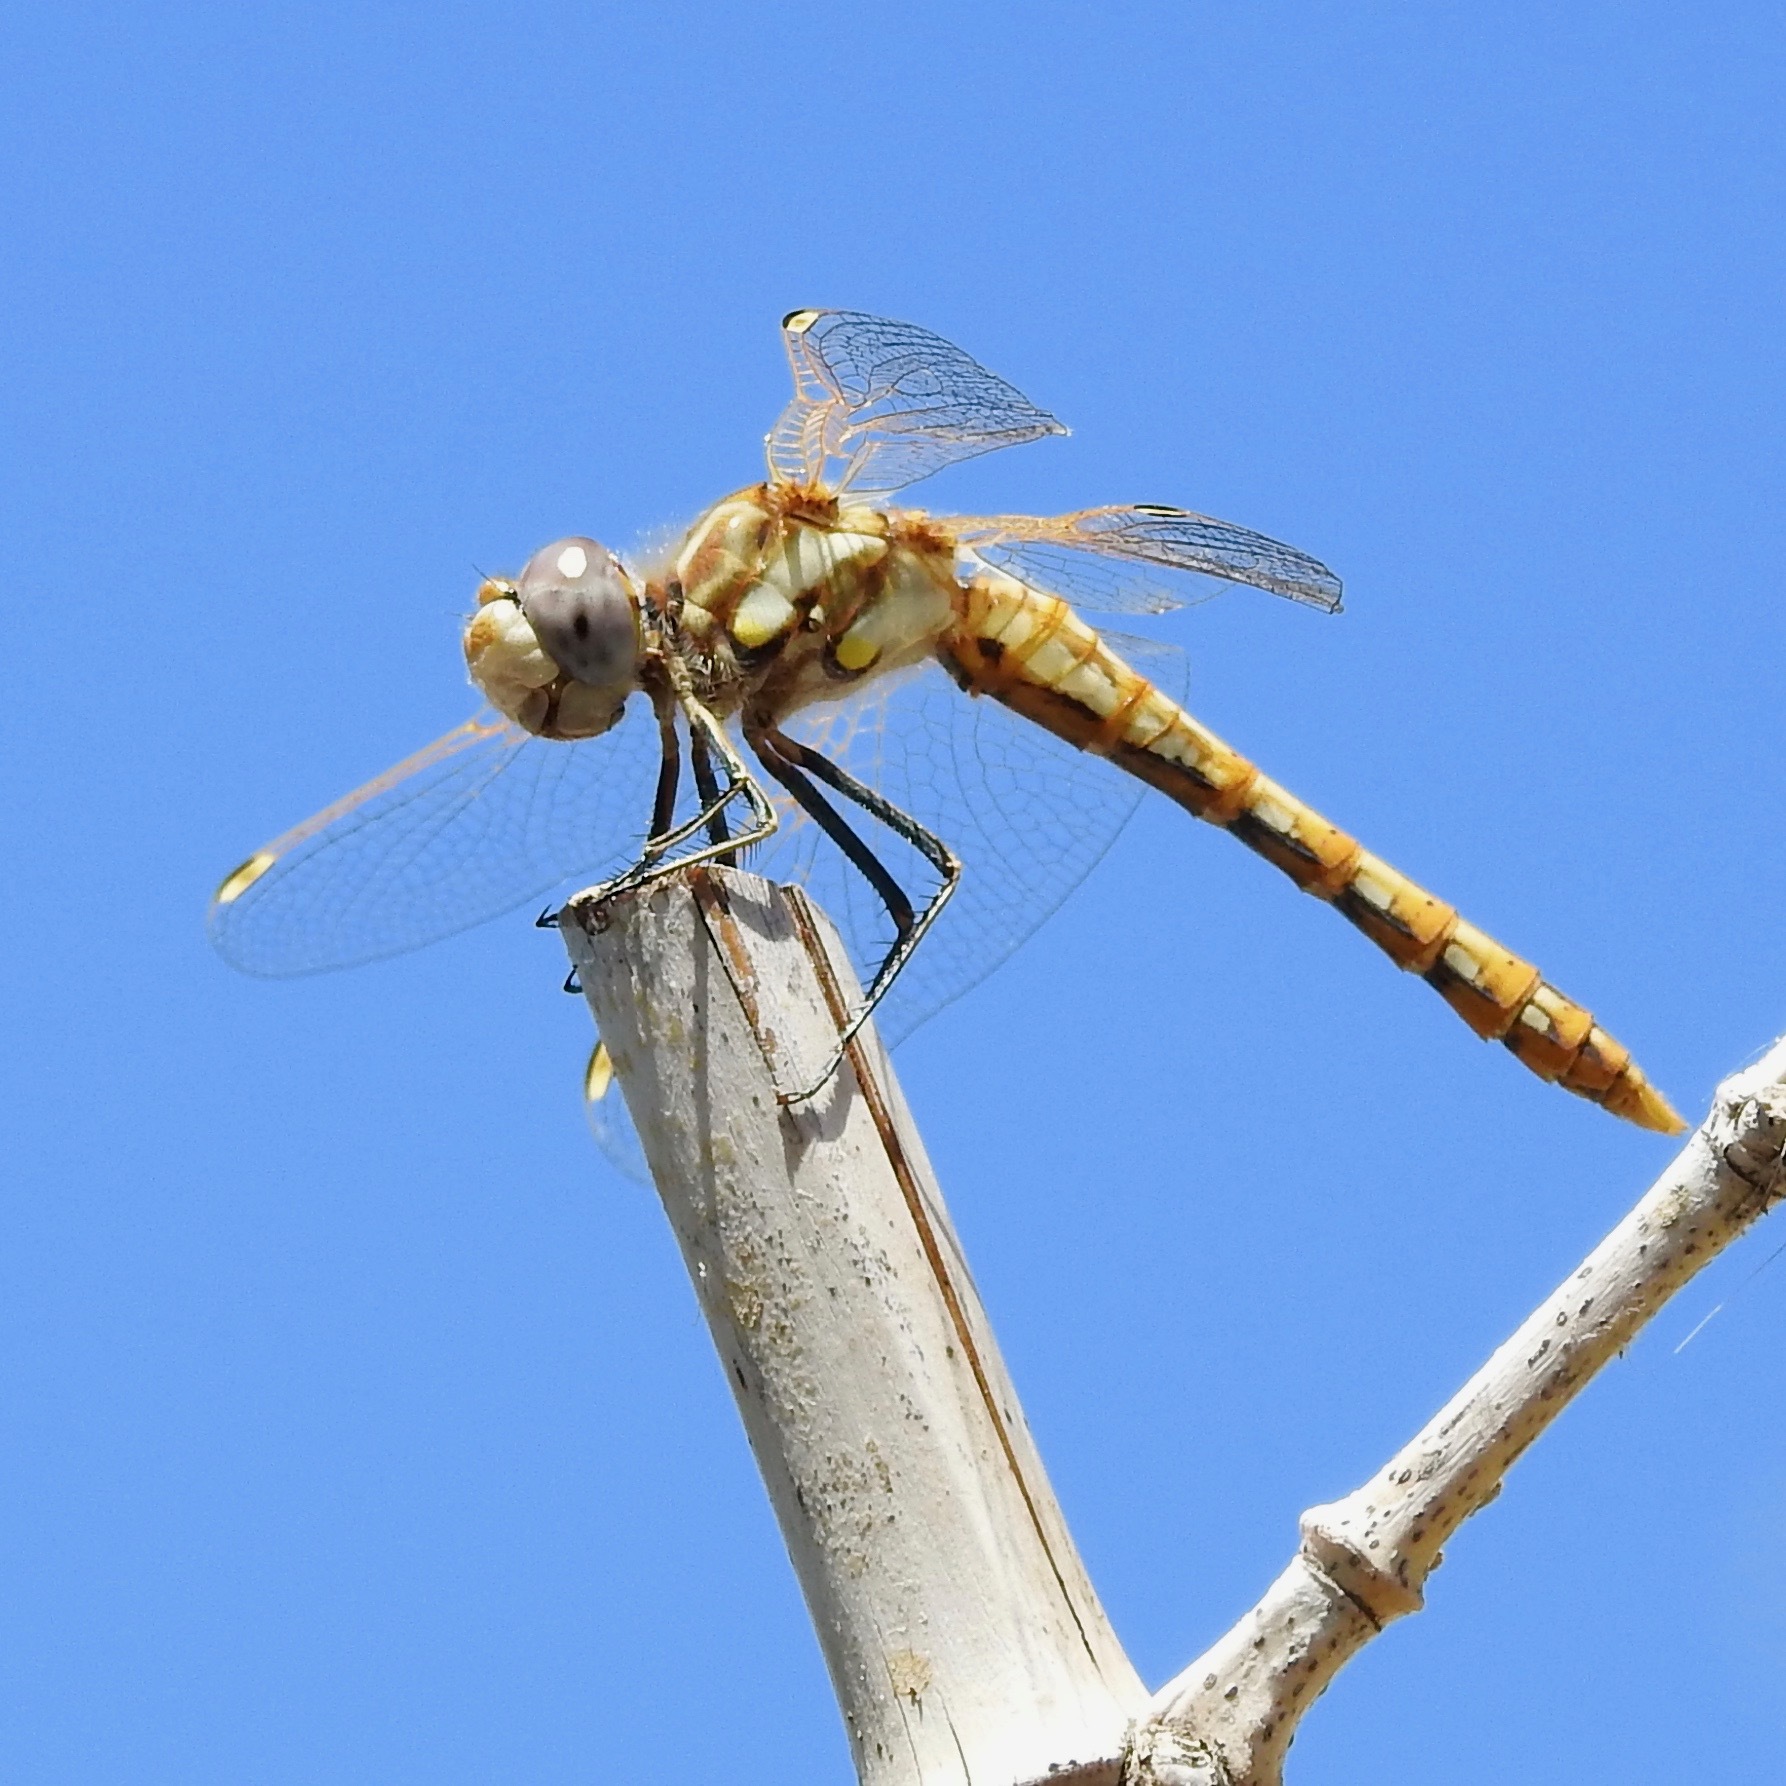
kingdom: Animalia
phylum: Arthropoda
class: Insecta
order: Odonata
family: Libellulidae
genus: Sympetrum
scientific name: Sympetrum corruptum
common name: Variegated meadowhawk
